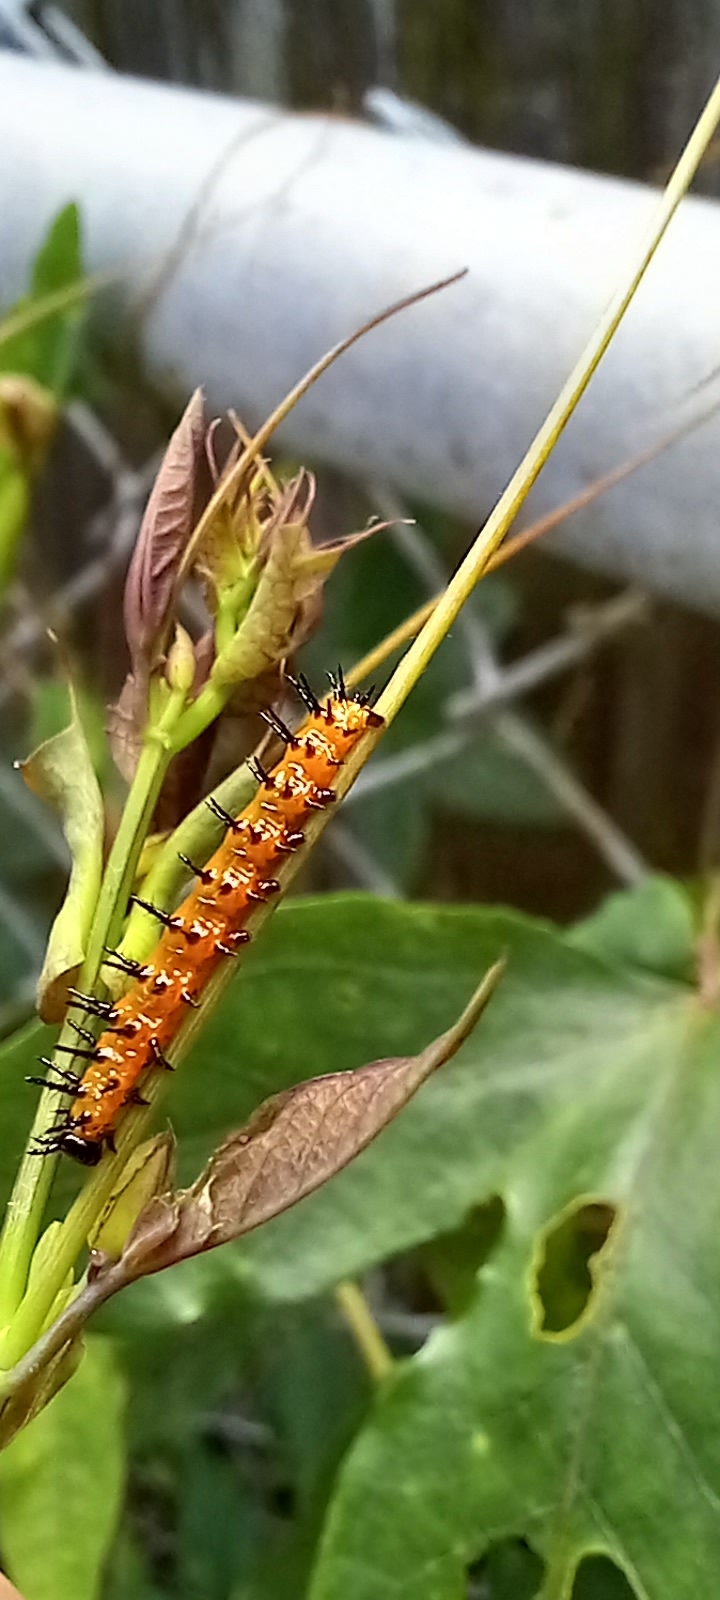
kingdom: Animalia
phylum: Arthropoda
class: Insecta
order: Lepidoptera
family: Nymphalidae
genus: Dione
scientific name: Dione vanillae
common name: Gulf fritillary
